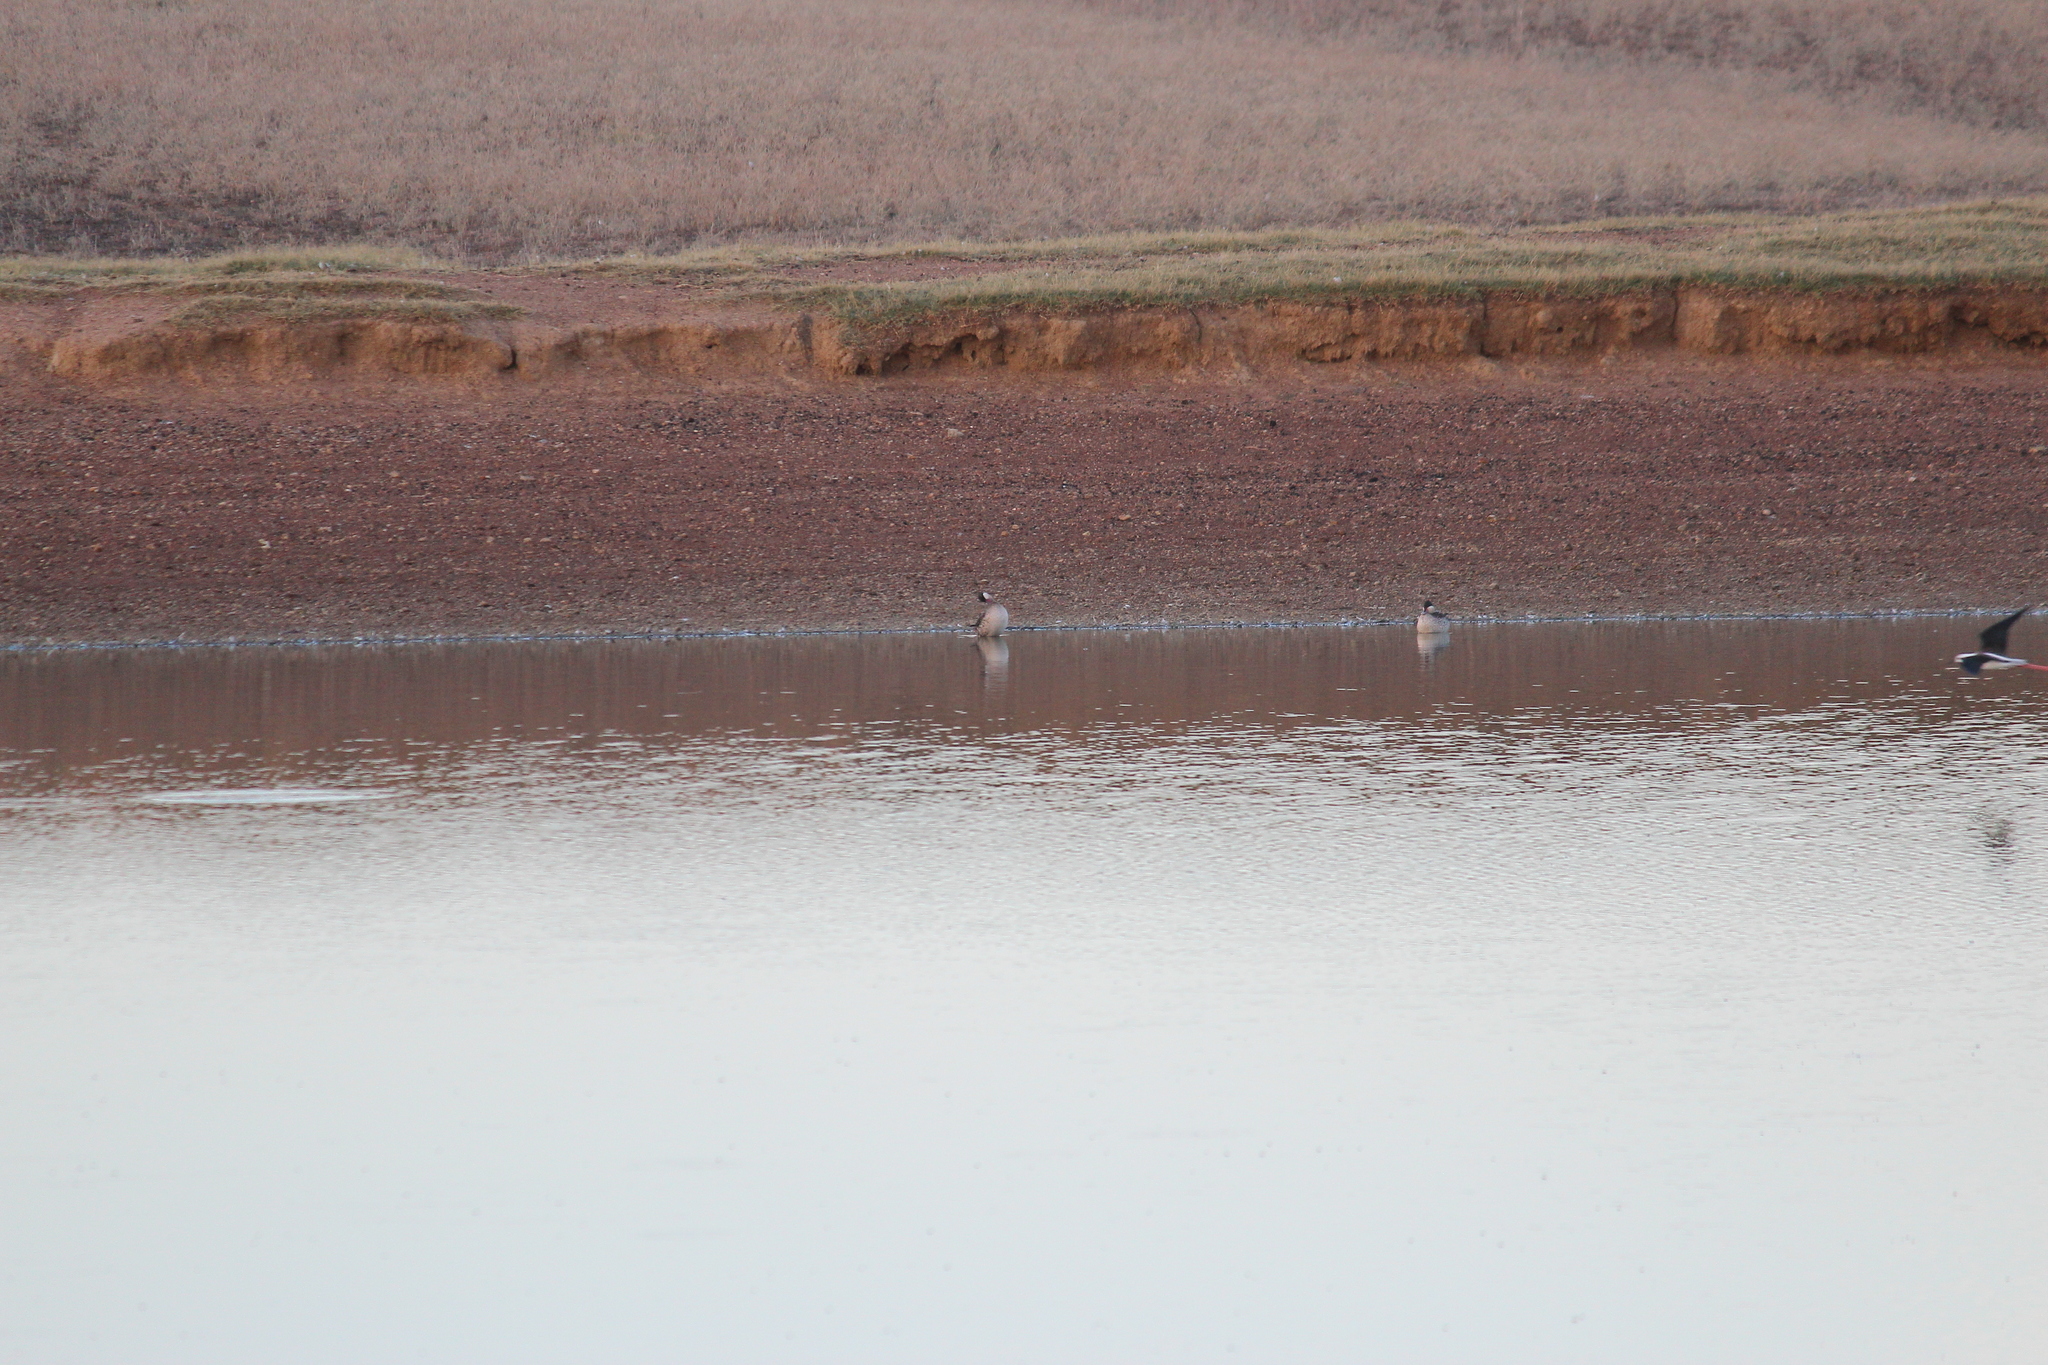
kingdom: Animalia
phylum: Chordata
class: Aves
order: Anseriformes
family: Anatidae
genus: Anas
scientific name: Anas erythrorhyncha
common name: Red-billed teal
